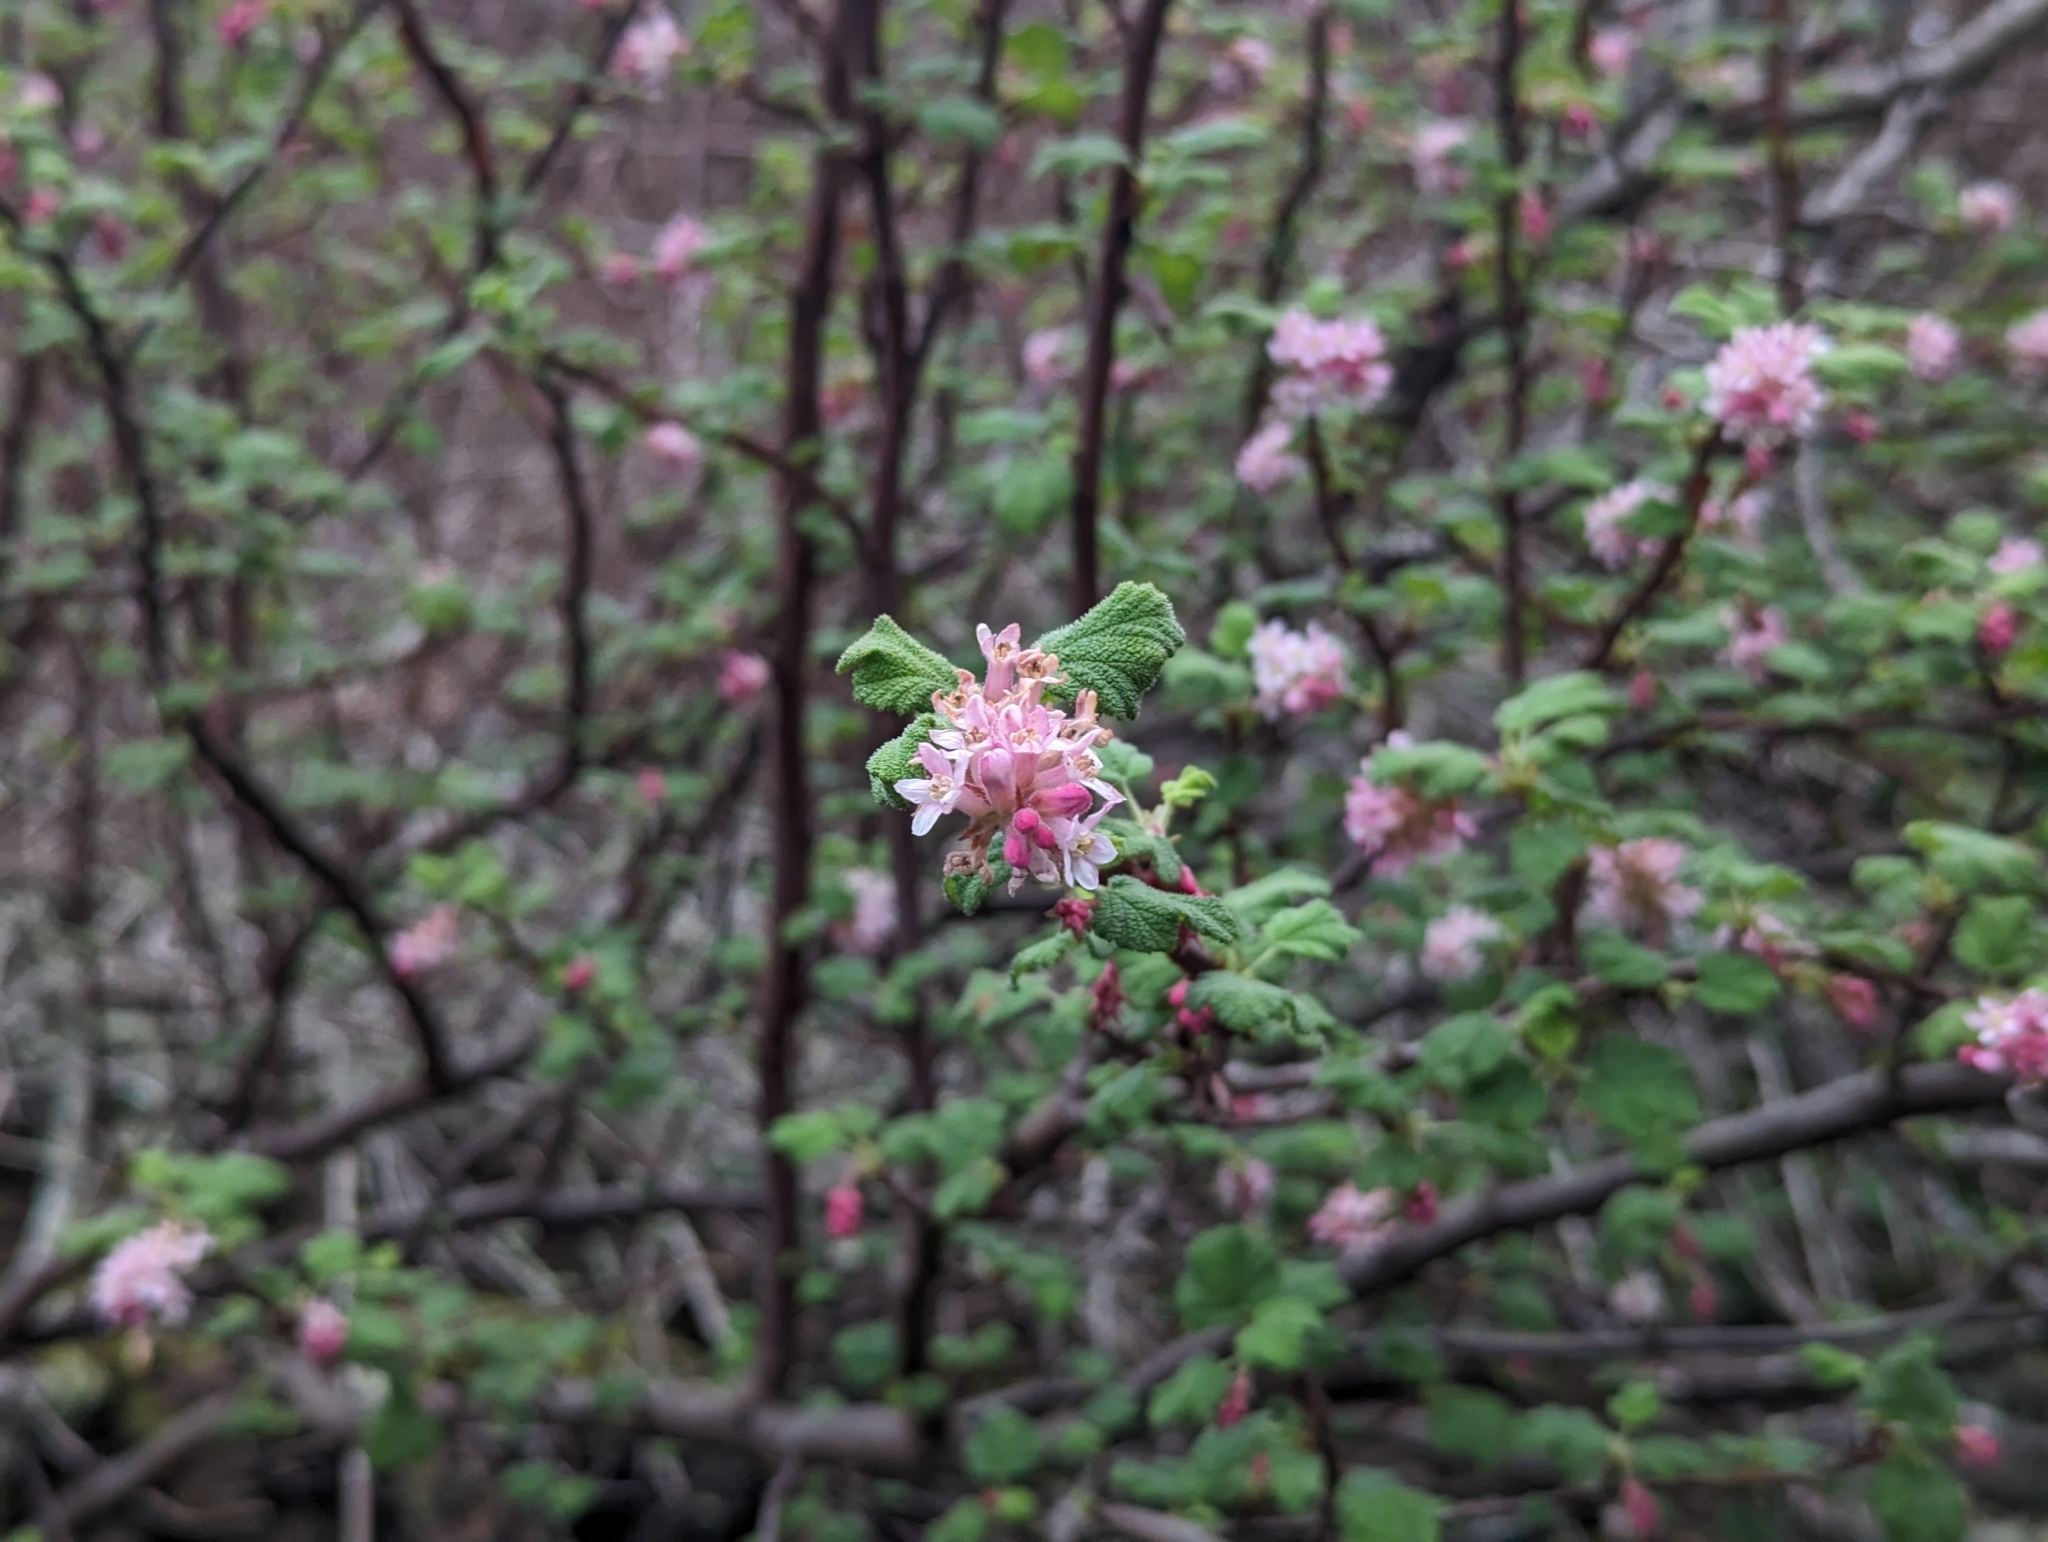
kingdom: Plantae
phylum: Tracheophyta
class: Magnoliopsida
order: Saxifragales
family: Grossulariaceae
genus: Ribes
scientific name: Ribes malvaceum
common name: Chaparral currant
